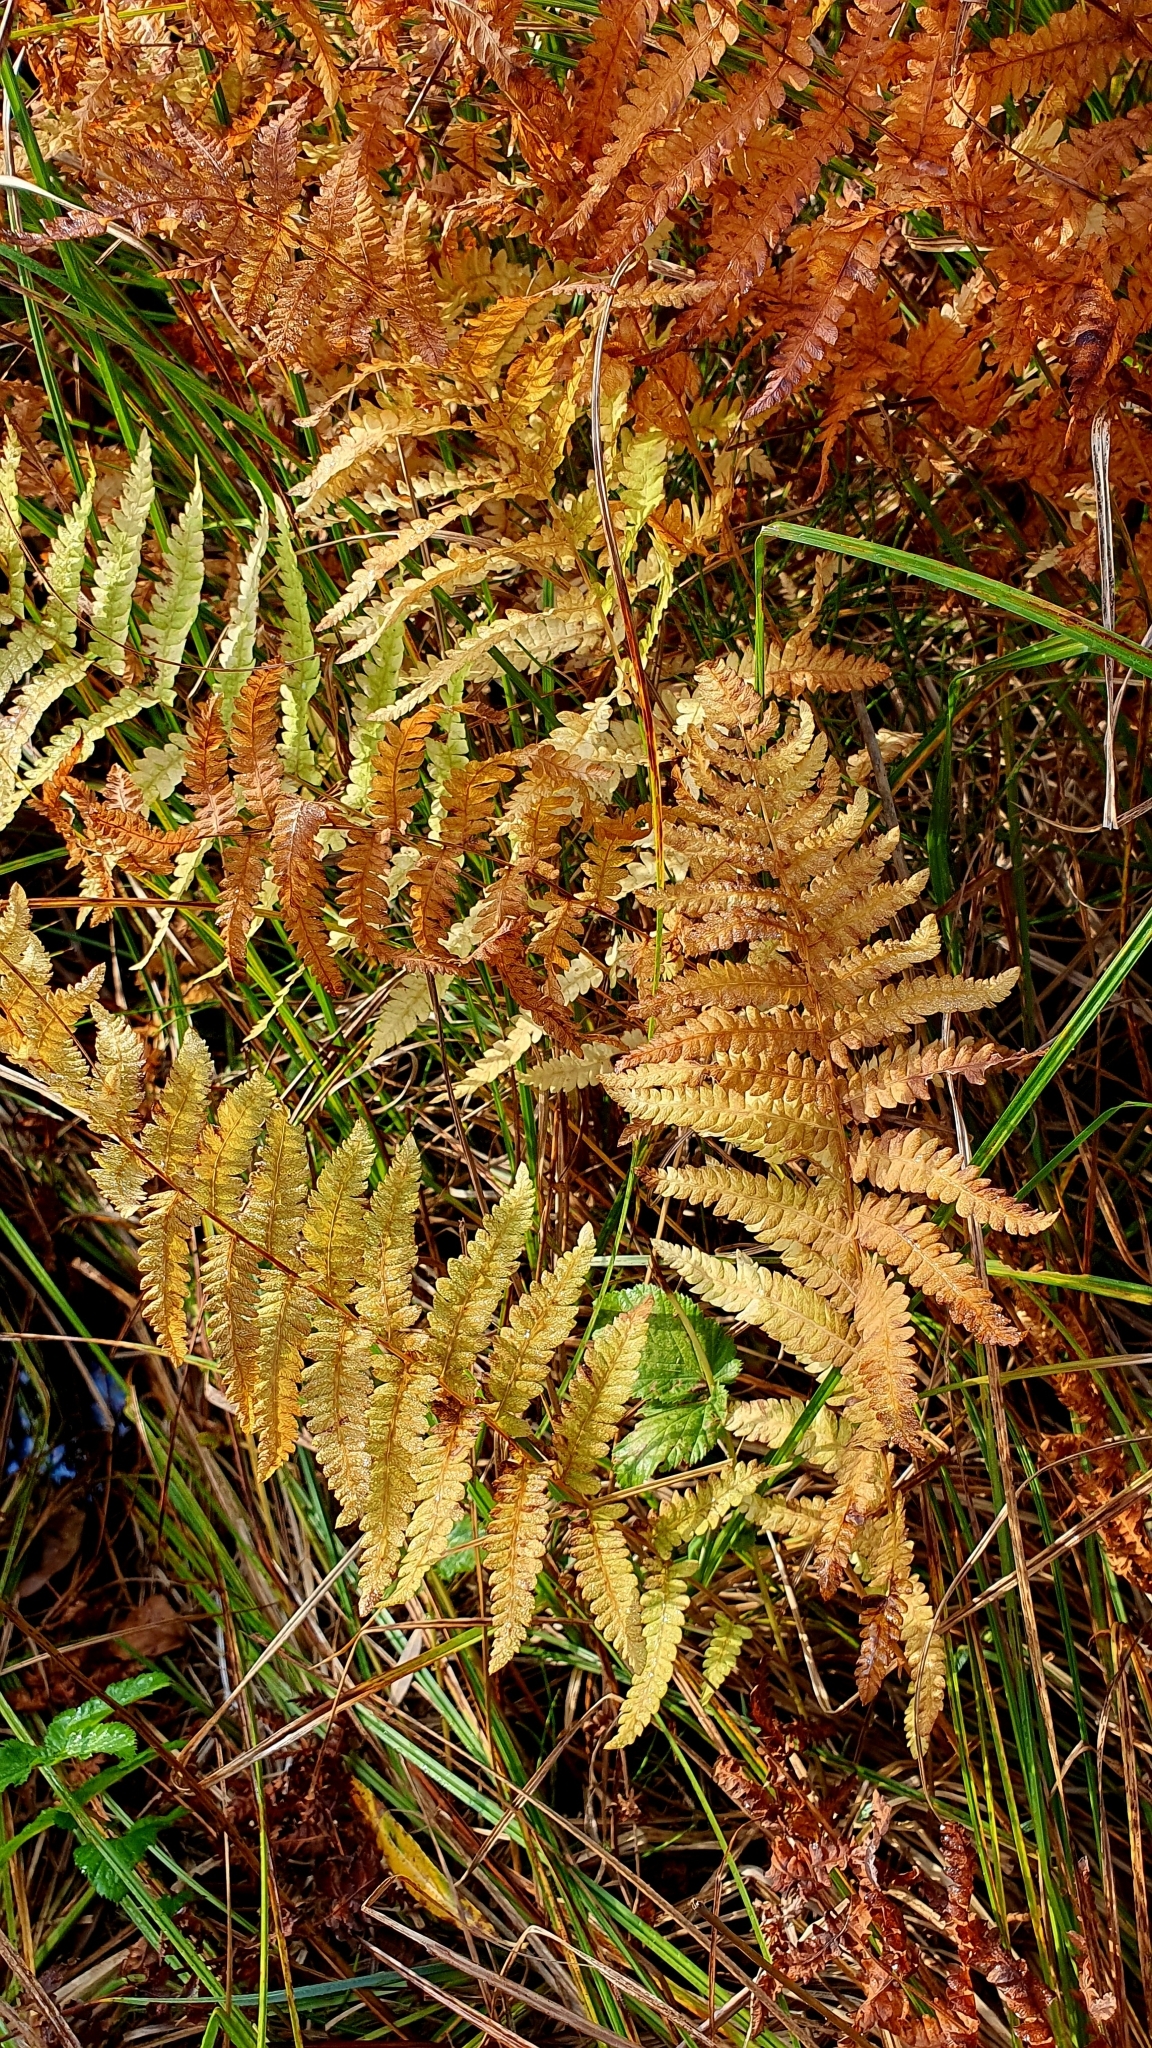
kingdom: Plantae
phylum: Tracheophyta
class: Polypodiopsida
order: Polypodiales
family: Dryopteridaceae
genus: Dryopteris
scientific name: Dryopteris filix-mas
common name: Male fern
